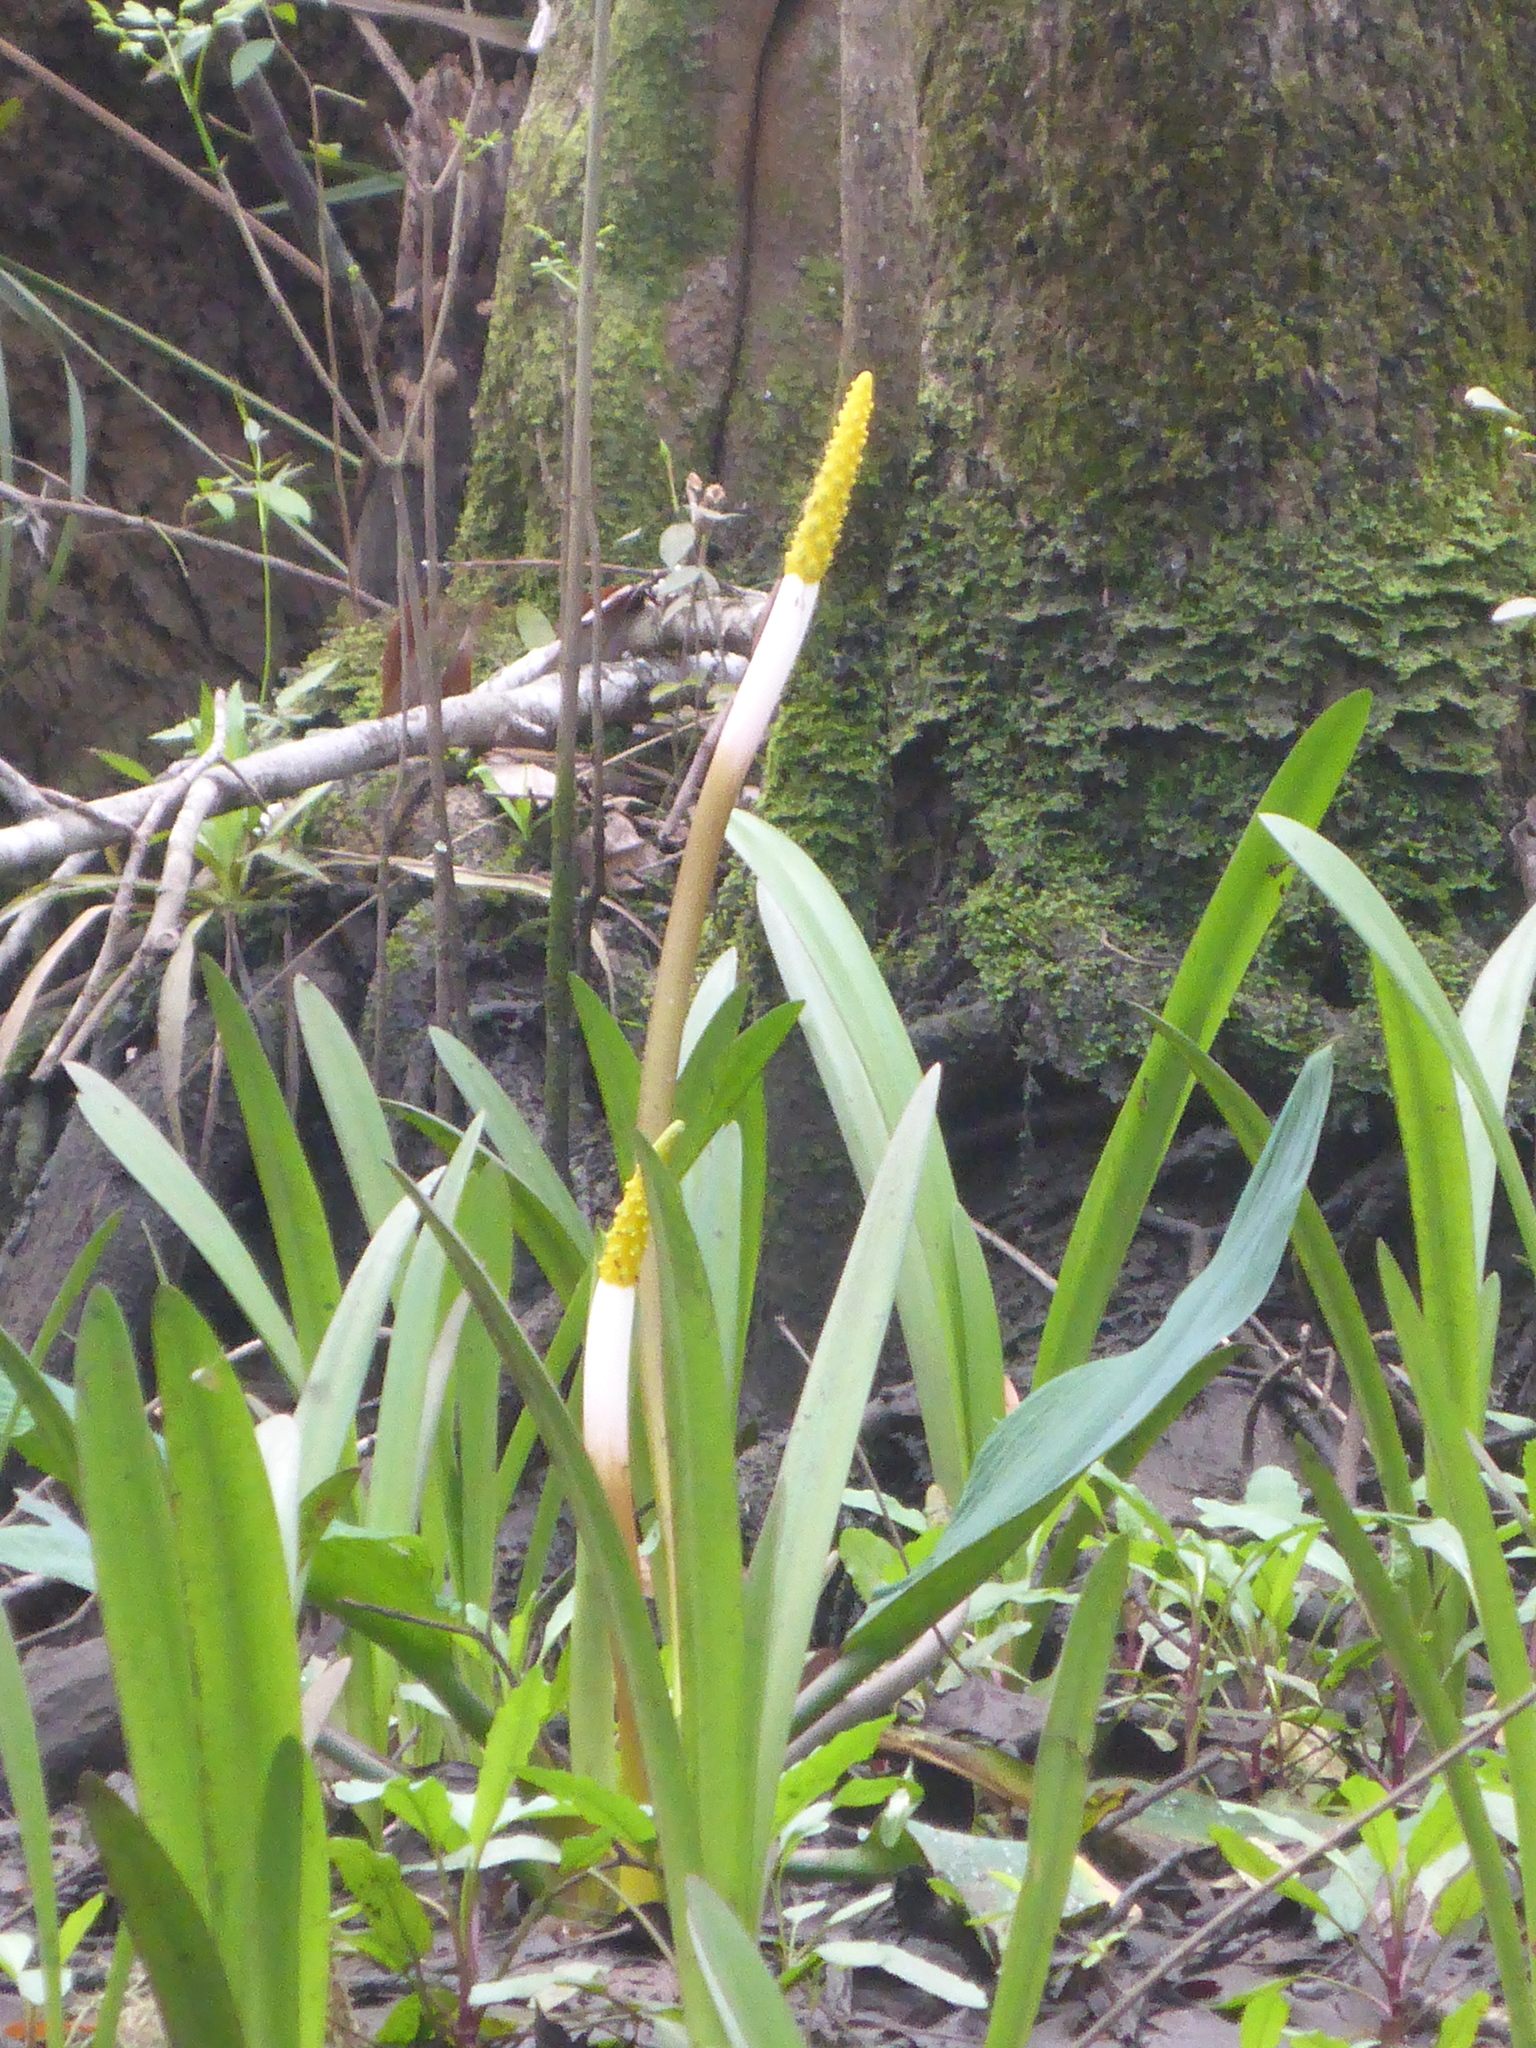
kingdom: Plantae
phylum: Tracheophyta
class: Liliopsida
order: Alismatales
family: Araceae
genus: Orontium
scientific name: Orontium aquaticum
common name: Golden-club
